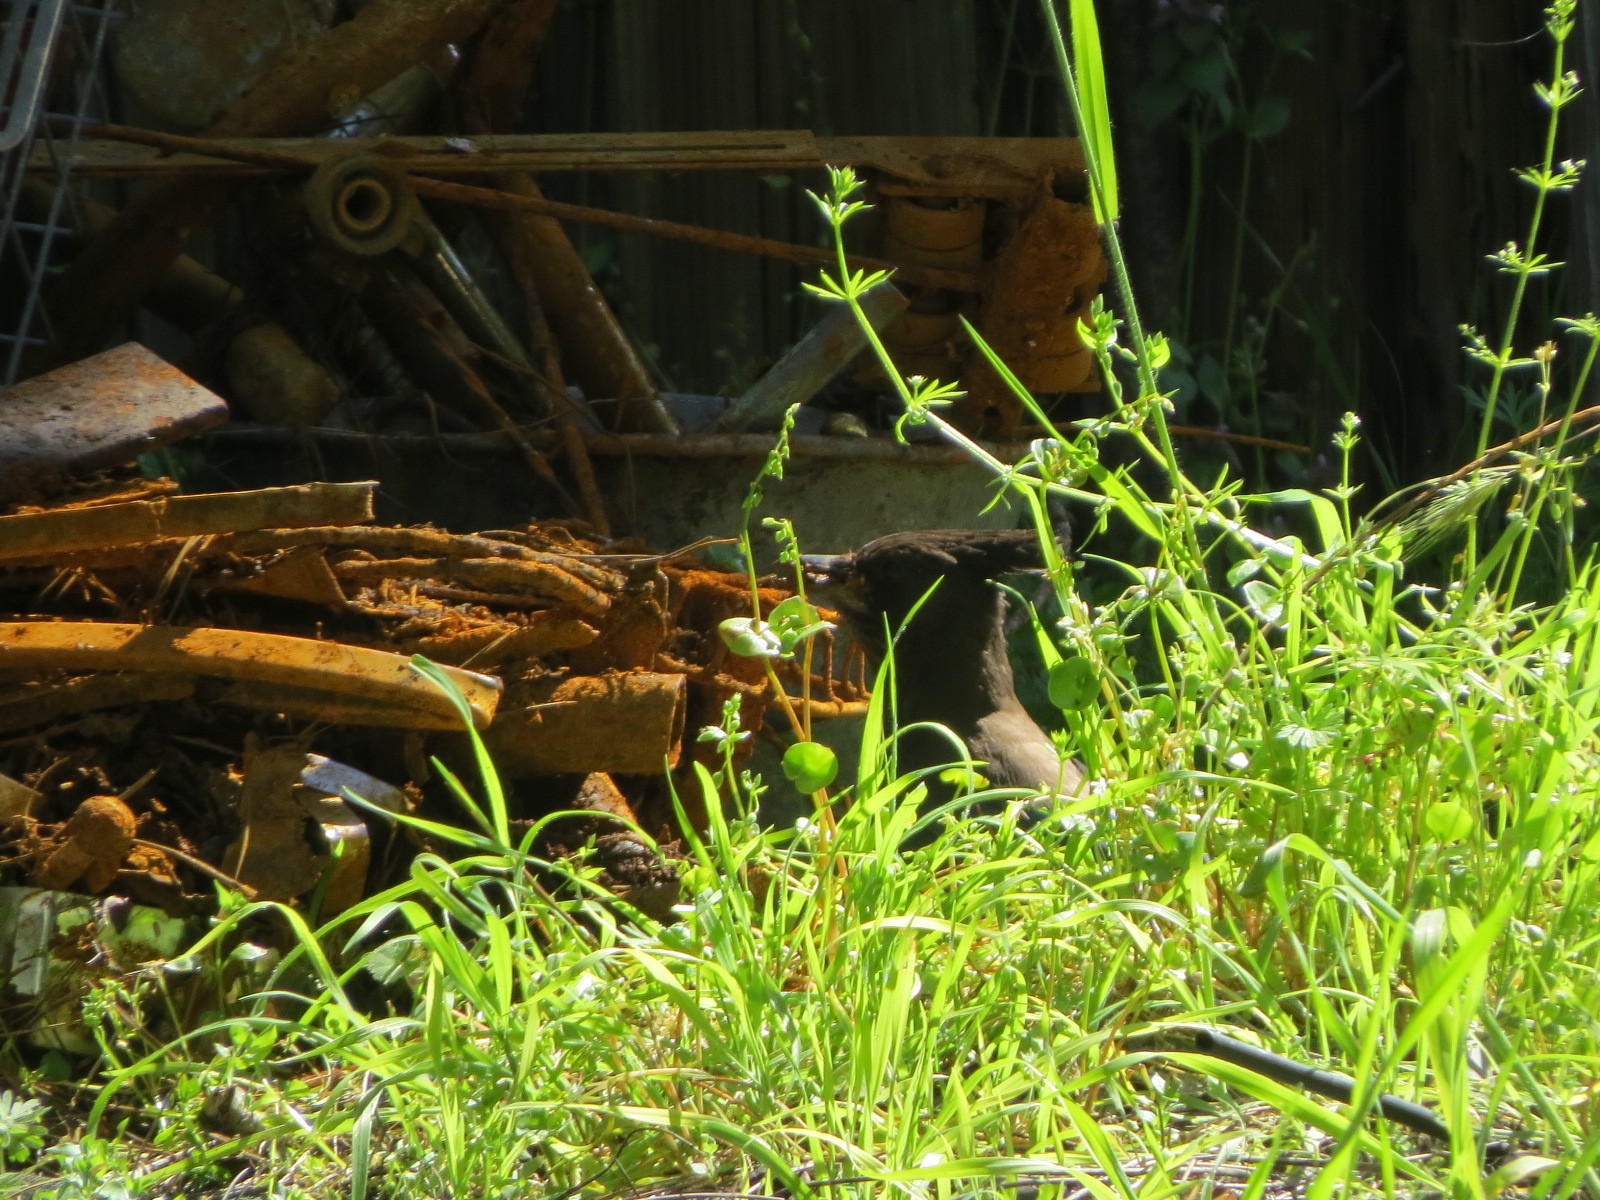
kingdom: Animalia
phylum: Chordata
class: Aves
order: Passeriformes
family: Corvidae
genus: Cyanocitta
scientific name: Cyanocitta stelleri
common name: Steller's jay
